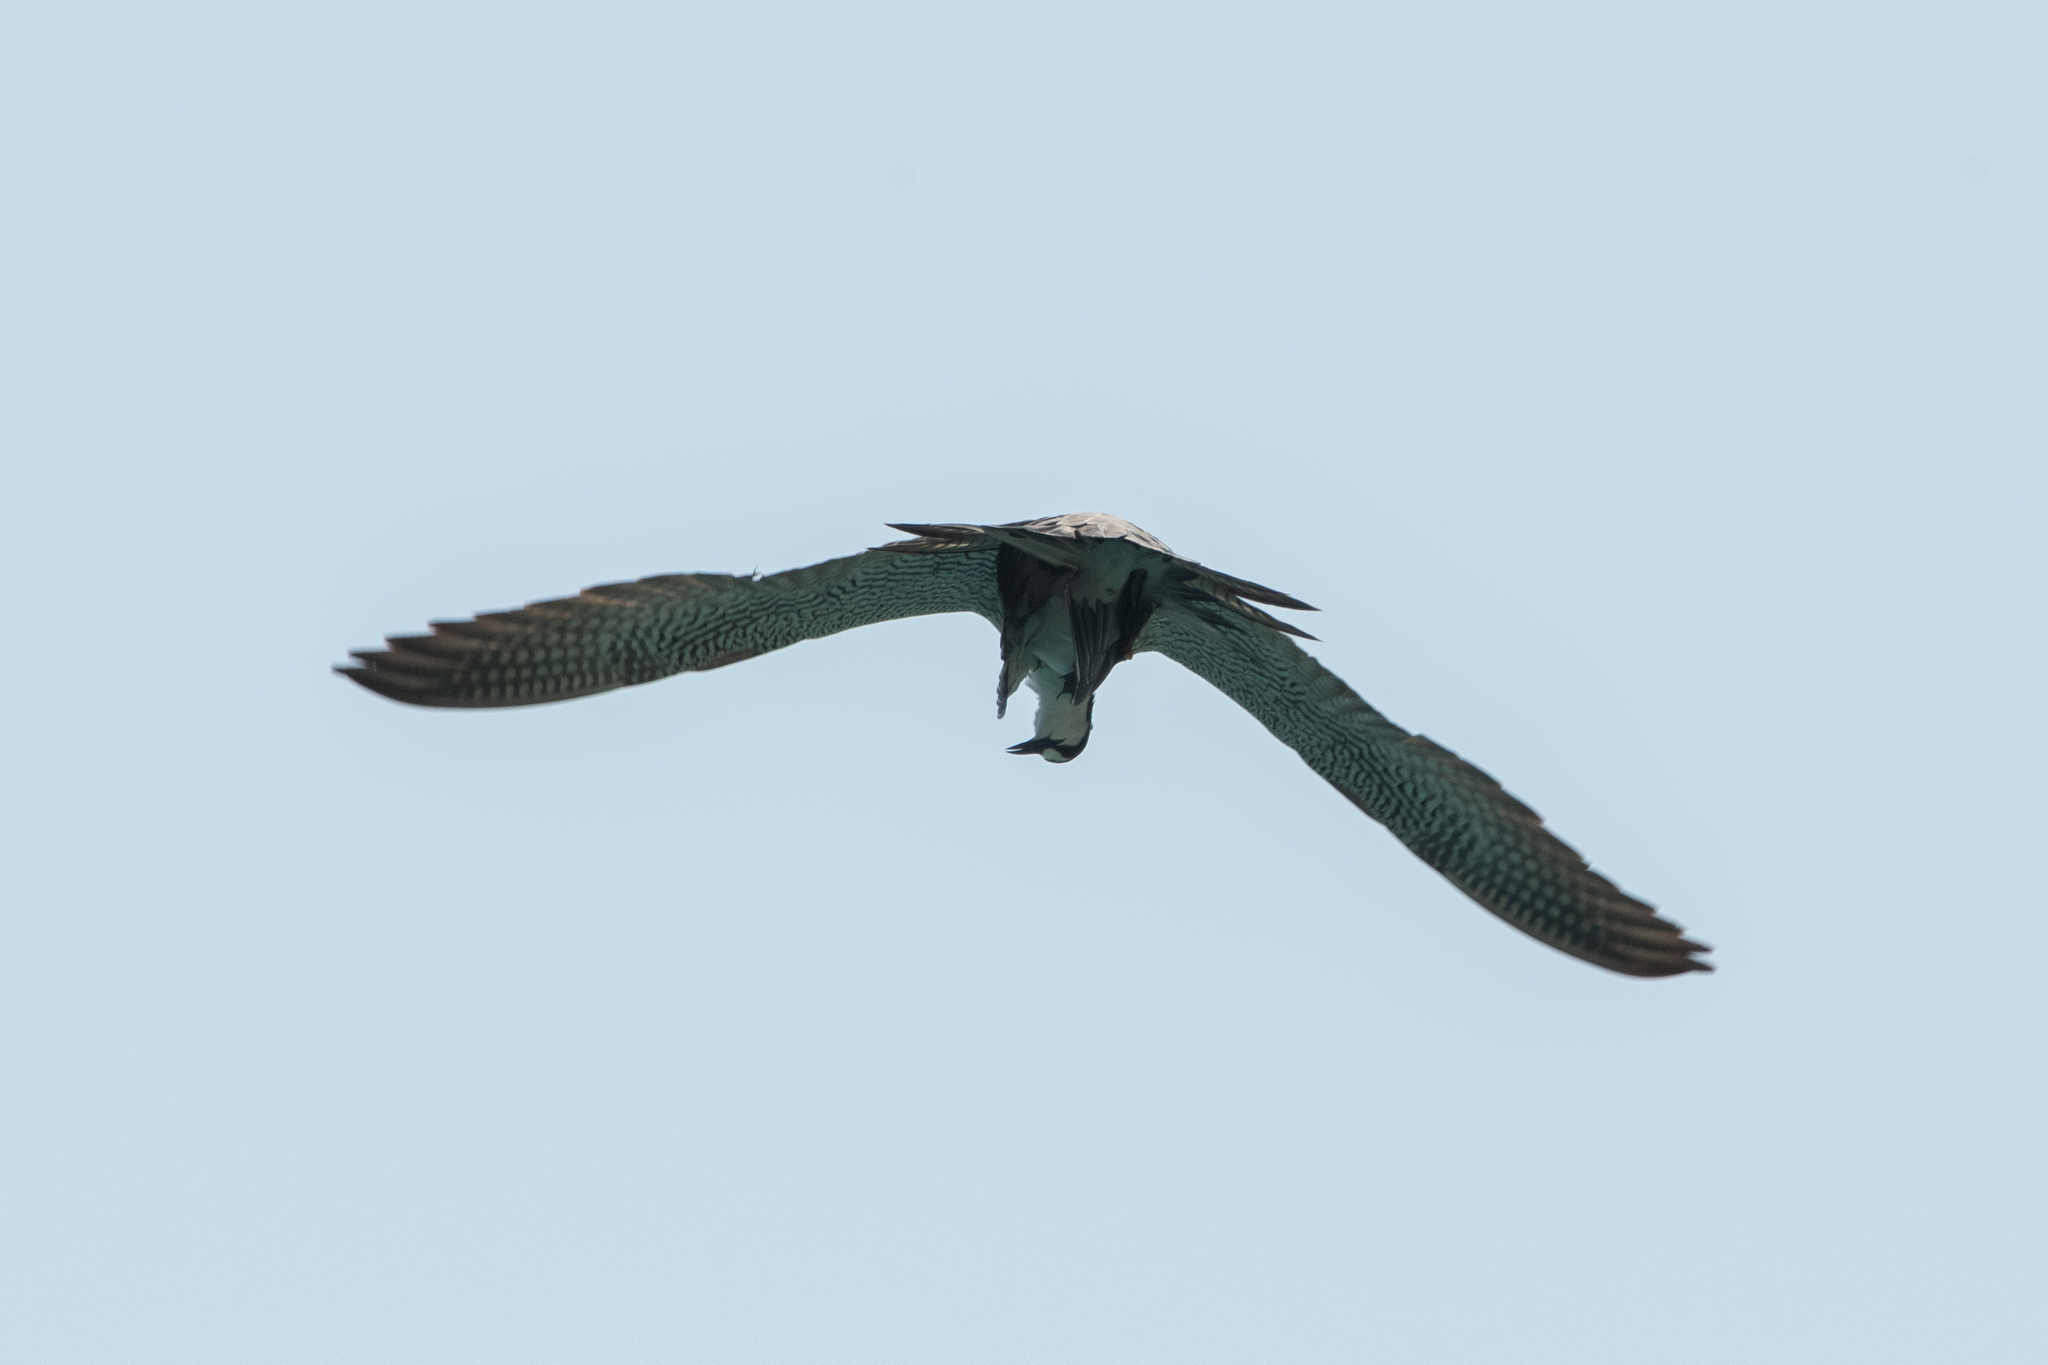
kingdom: Animalia
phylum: Chordata
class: Aves
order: Charadriiformes
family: Laridae
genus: Onychoprion
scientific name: Onychoprion fuscatus
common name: Sooty tern
